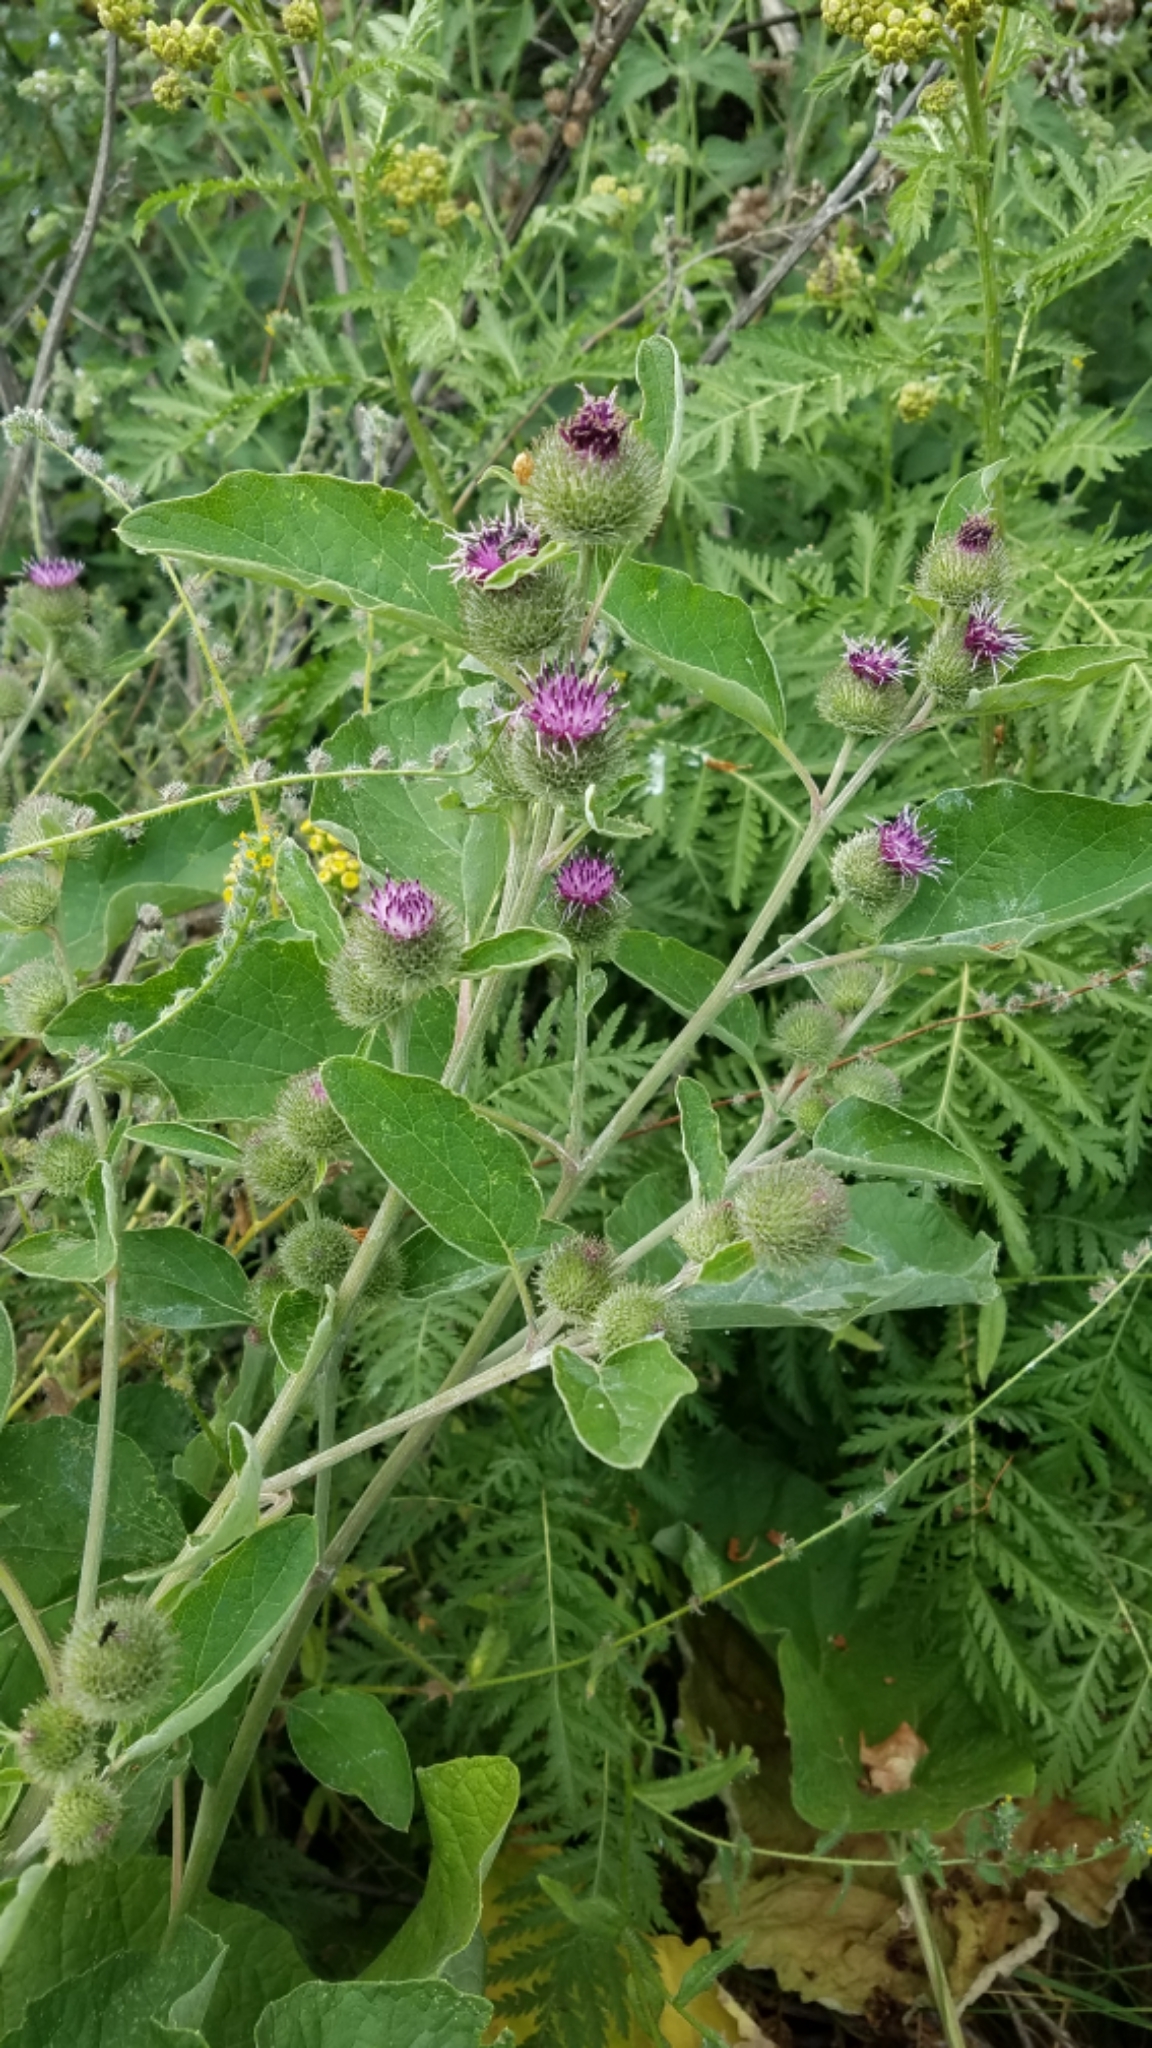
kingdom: Plantae
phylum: Tracheophyta
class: Magnoliopsida
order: Asterales
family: Asteraceae
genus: Arctium
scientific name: Arctium minus
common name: Lesser burdock
